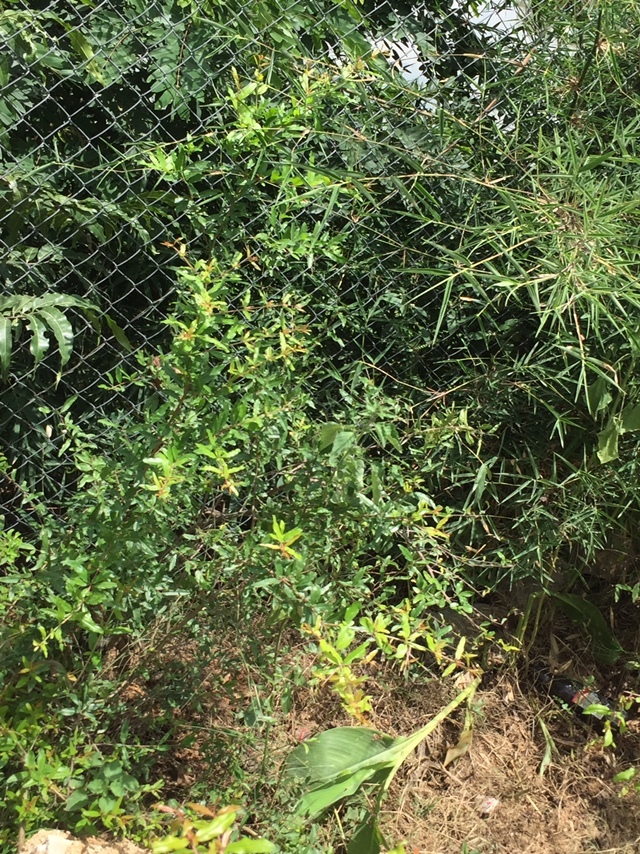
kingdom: Animalia
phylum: Arthropoda
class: Insecta
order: Lepidoptera
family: Papilionidae
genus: Graphium
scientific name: Graphium agamemnon
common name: Tailed jay
